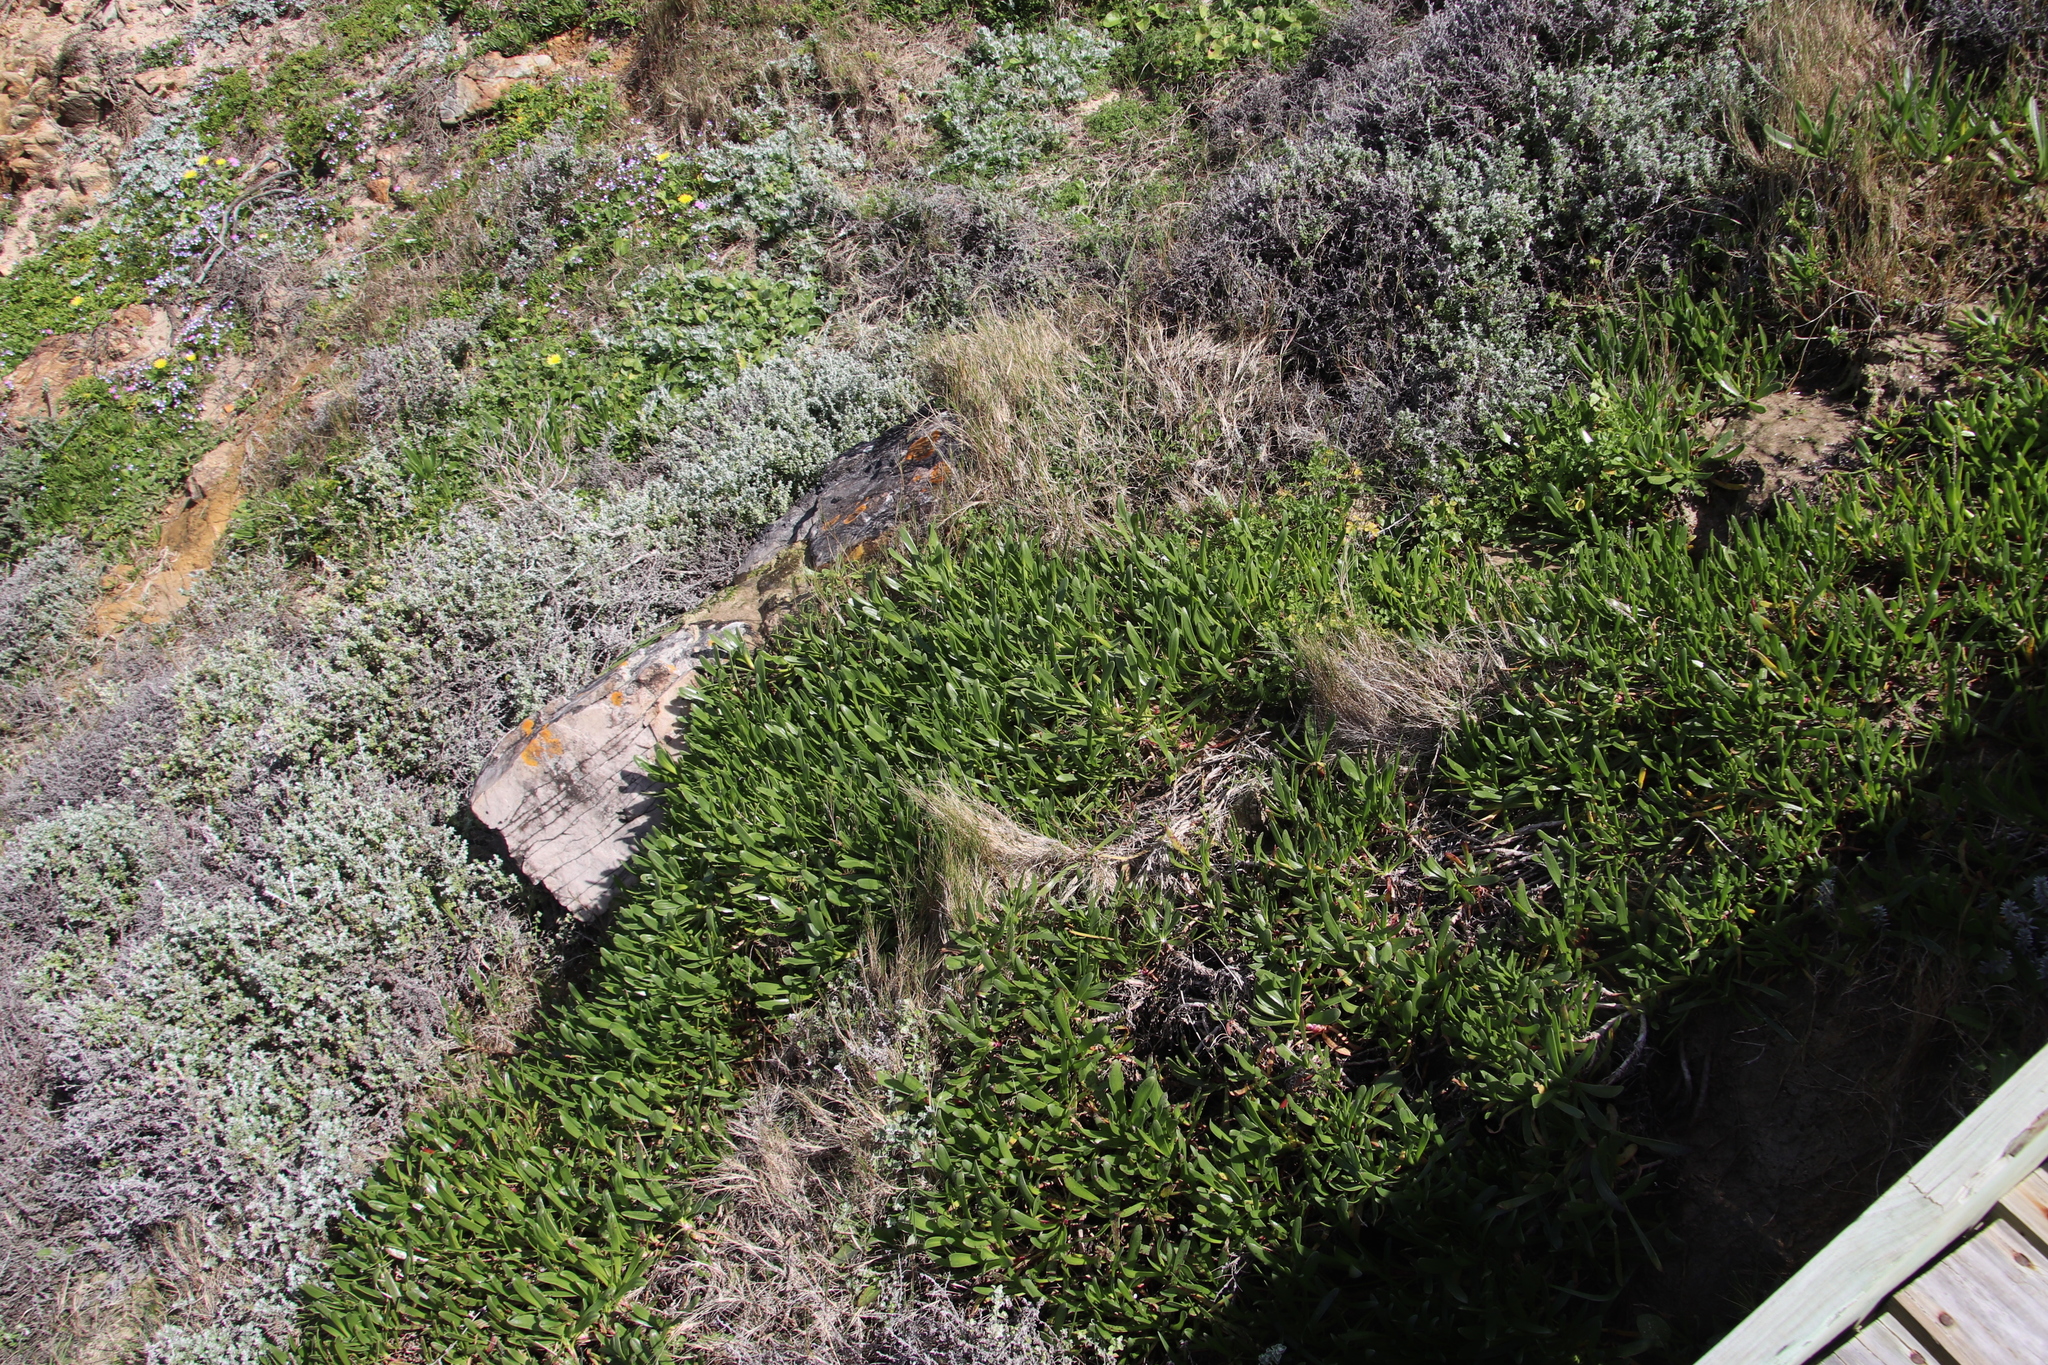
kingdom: Plantae
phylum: Tracheophyta
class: Magnoliopsida
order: Lamiales
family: Plantaginaceae
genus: Plantago
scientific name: Plantago carnosa
